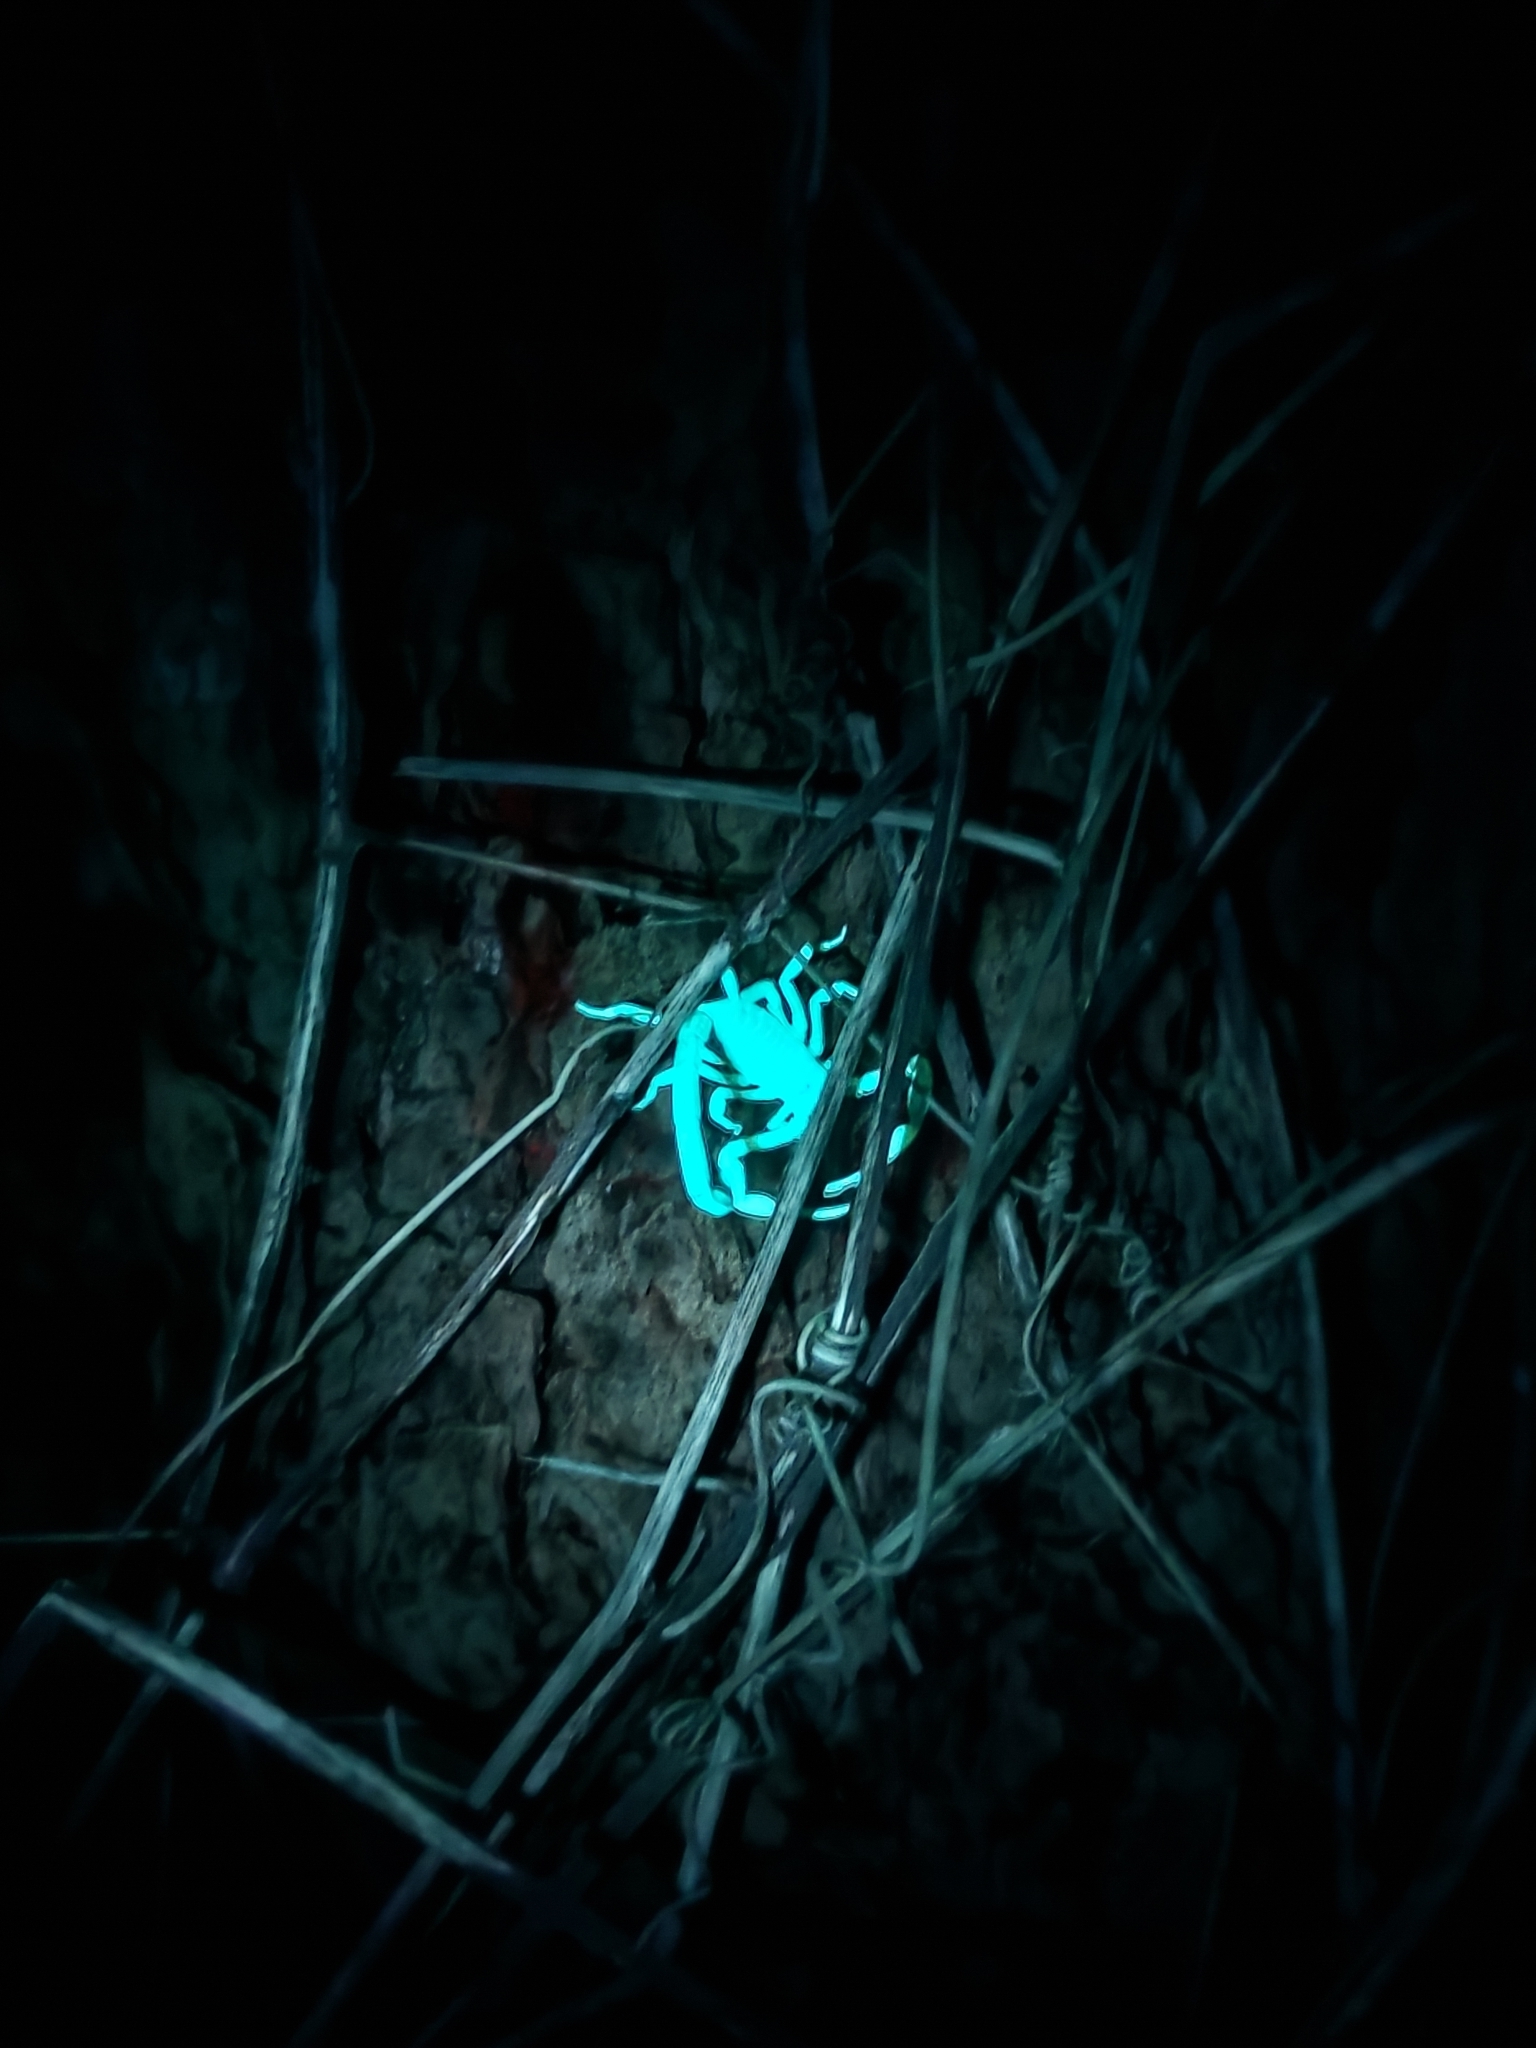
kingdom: Animalia
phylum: Arthropoda
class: Arachnida
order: Scorpiones
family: Buthidae
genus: Isometrus
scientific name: Isometrus maculatus
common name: Scorpions
